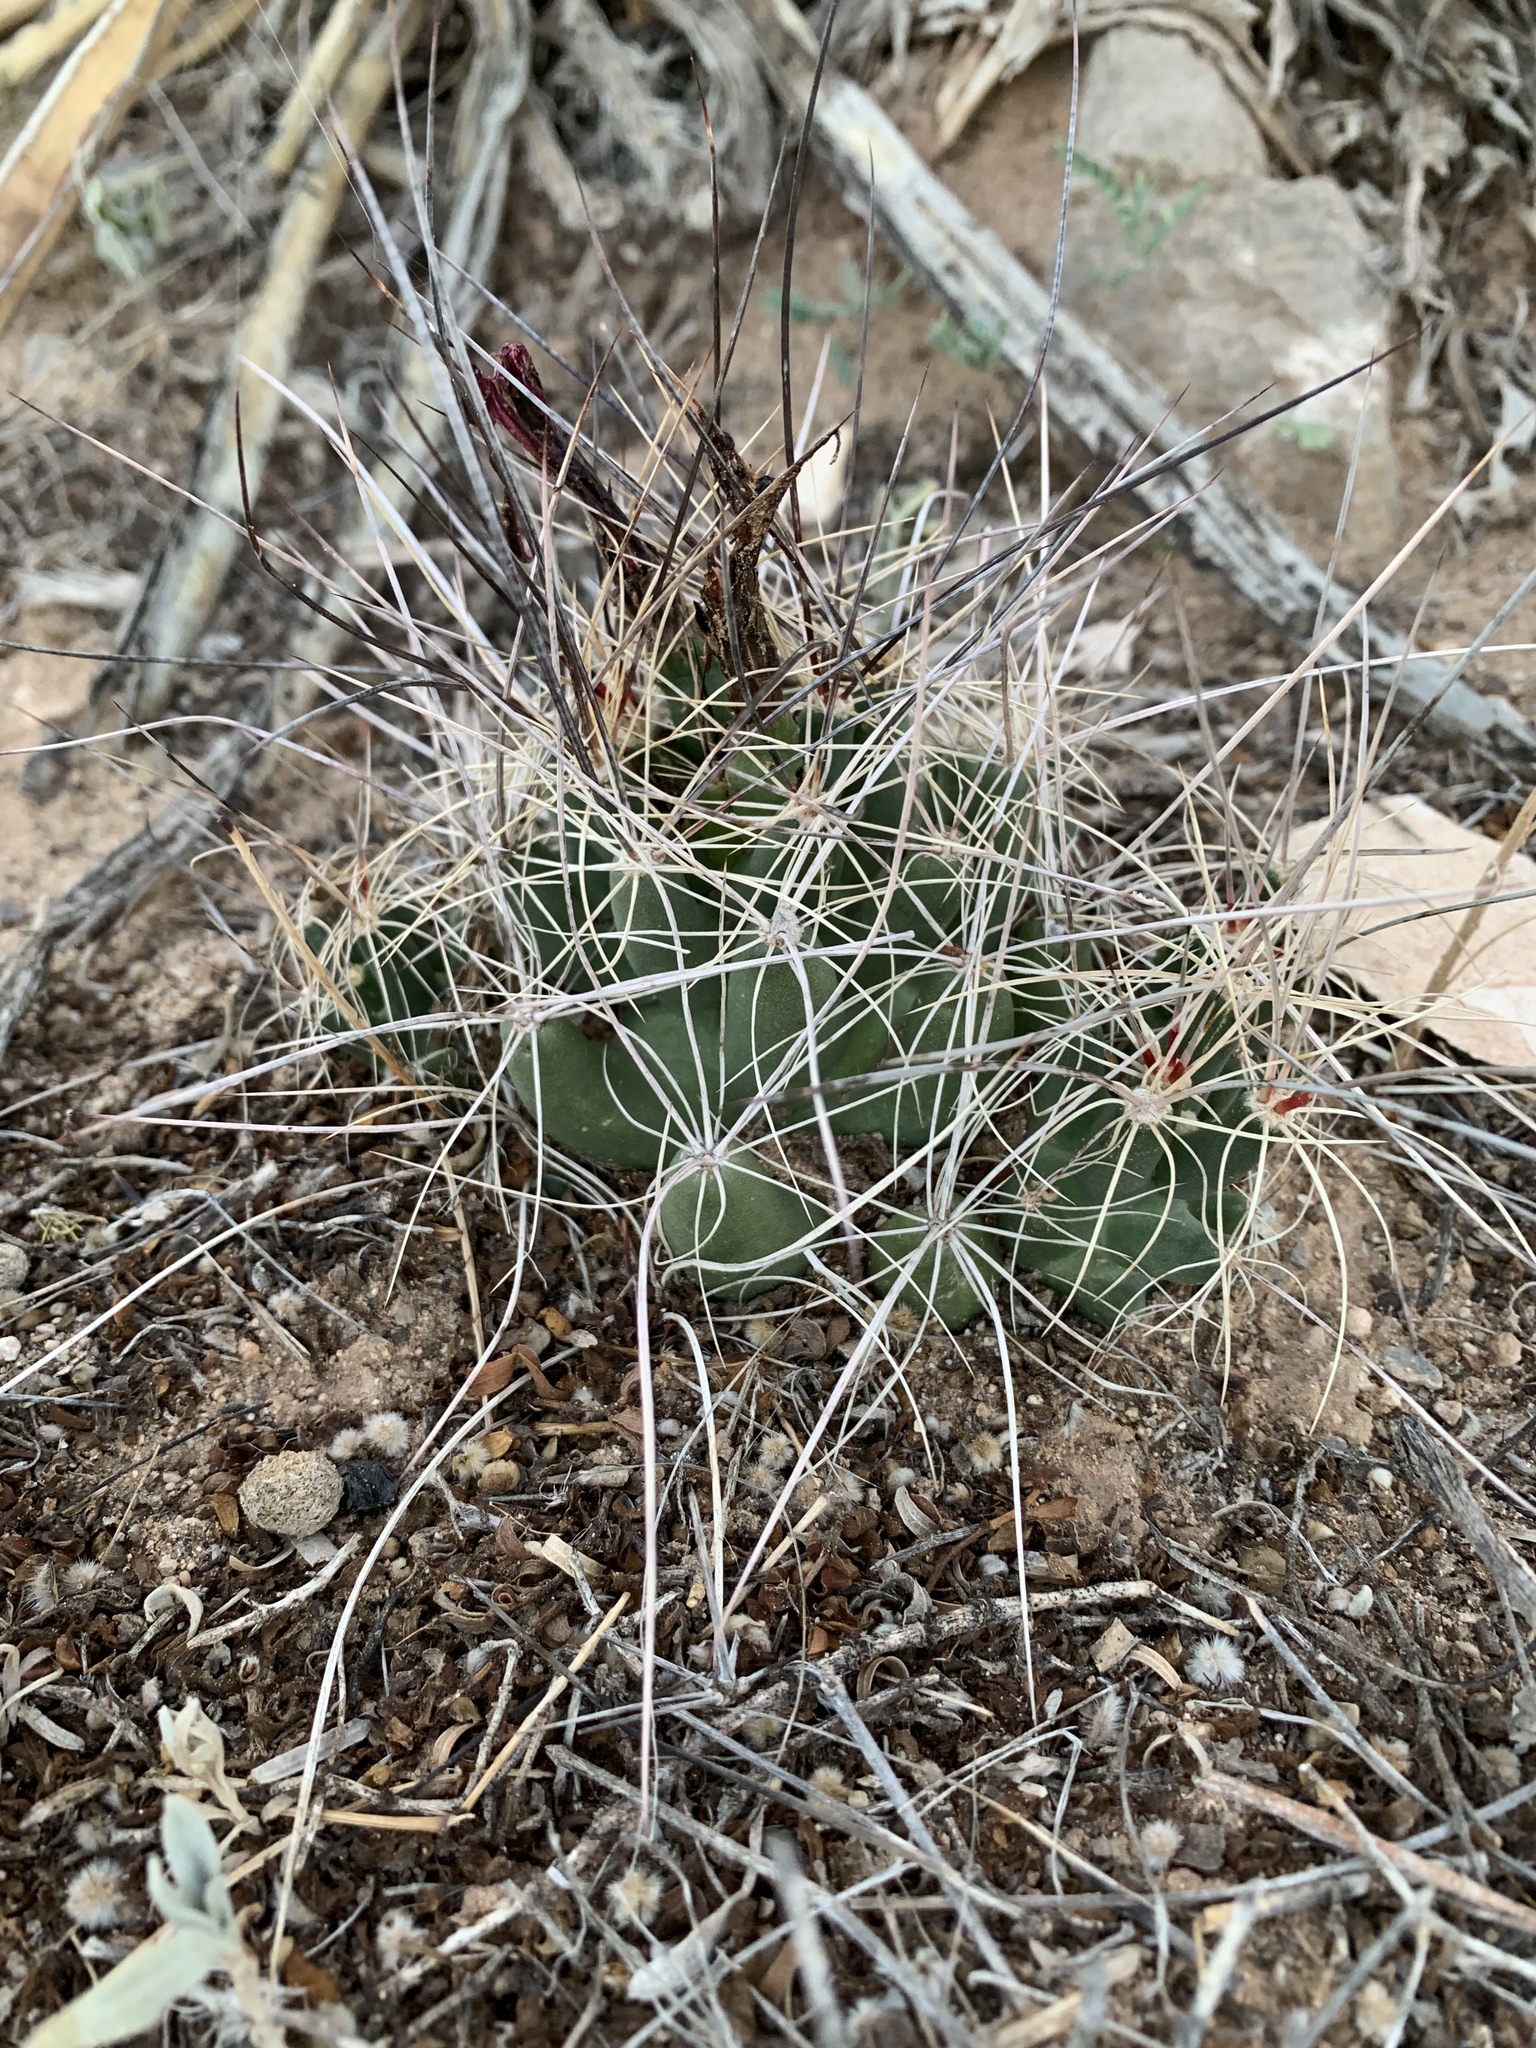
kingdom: Plantae
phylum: Tracheophyta
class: Magnoliopsida
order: Caryophyllales
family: Cactaceae
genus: Coryphantha
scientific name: Coryphantha macromeris
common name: Nipple beehive cactus
